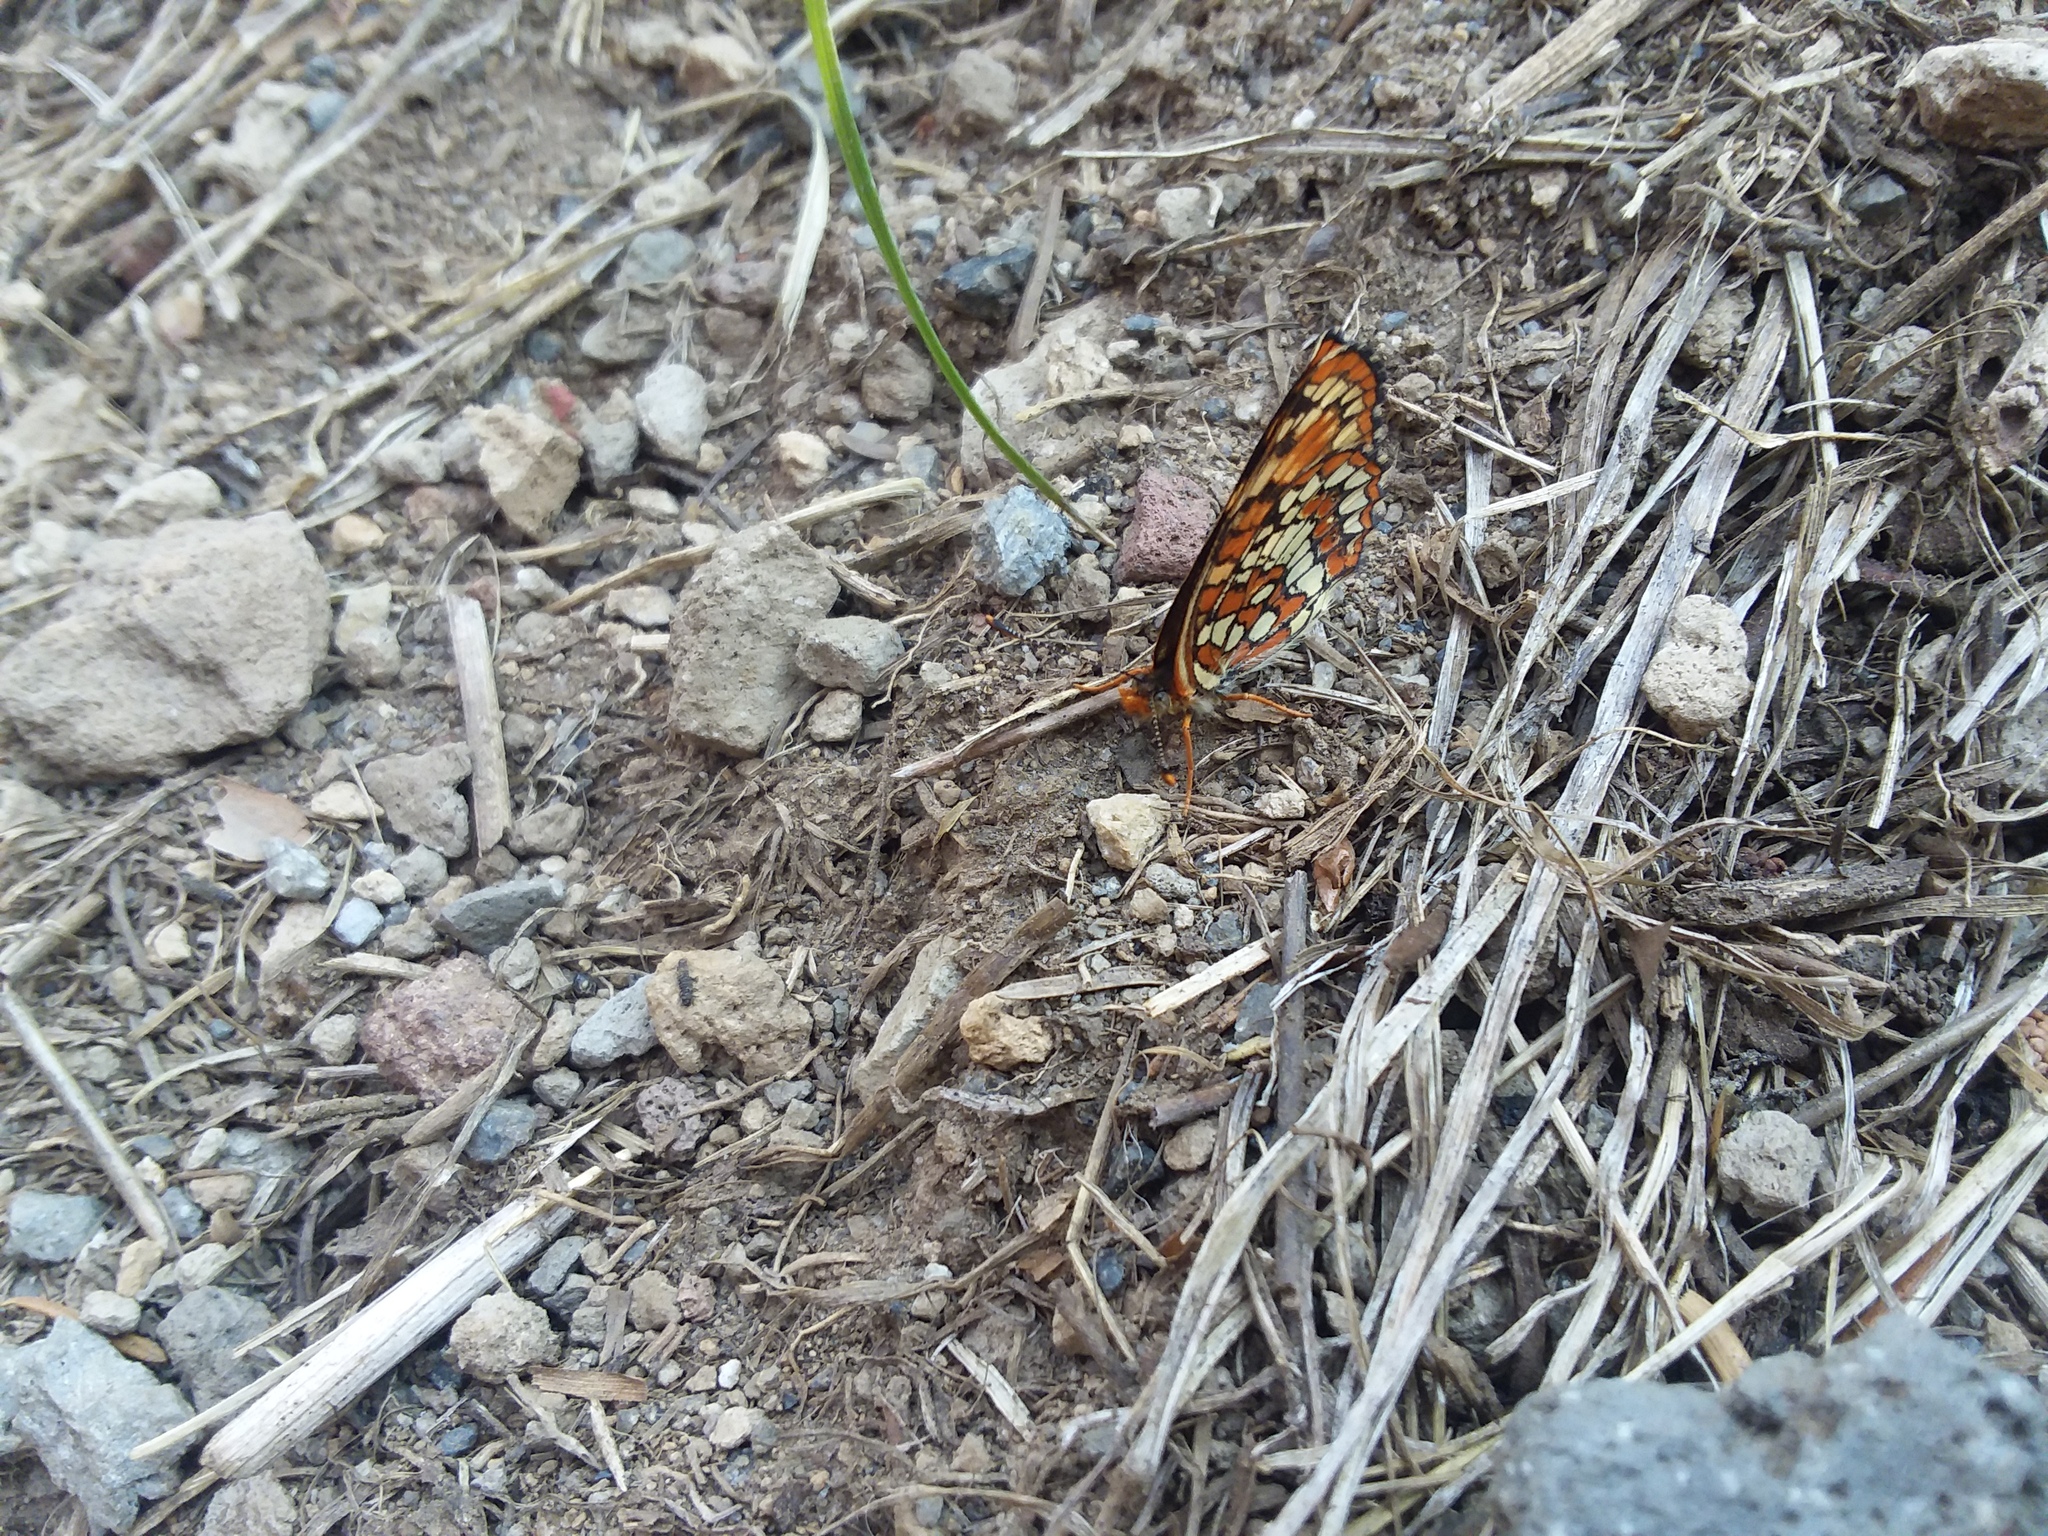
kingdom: Animalia
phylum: Arthropoda
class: Insecta
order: Lepidoptera
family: Nymphalidae
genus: Chlosyne
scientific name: Chlosyne hoffmanni
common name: Hoffmann's checkerspot
